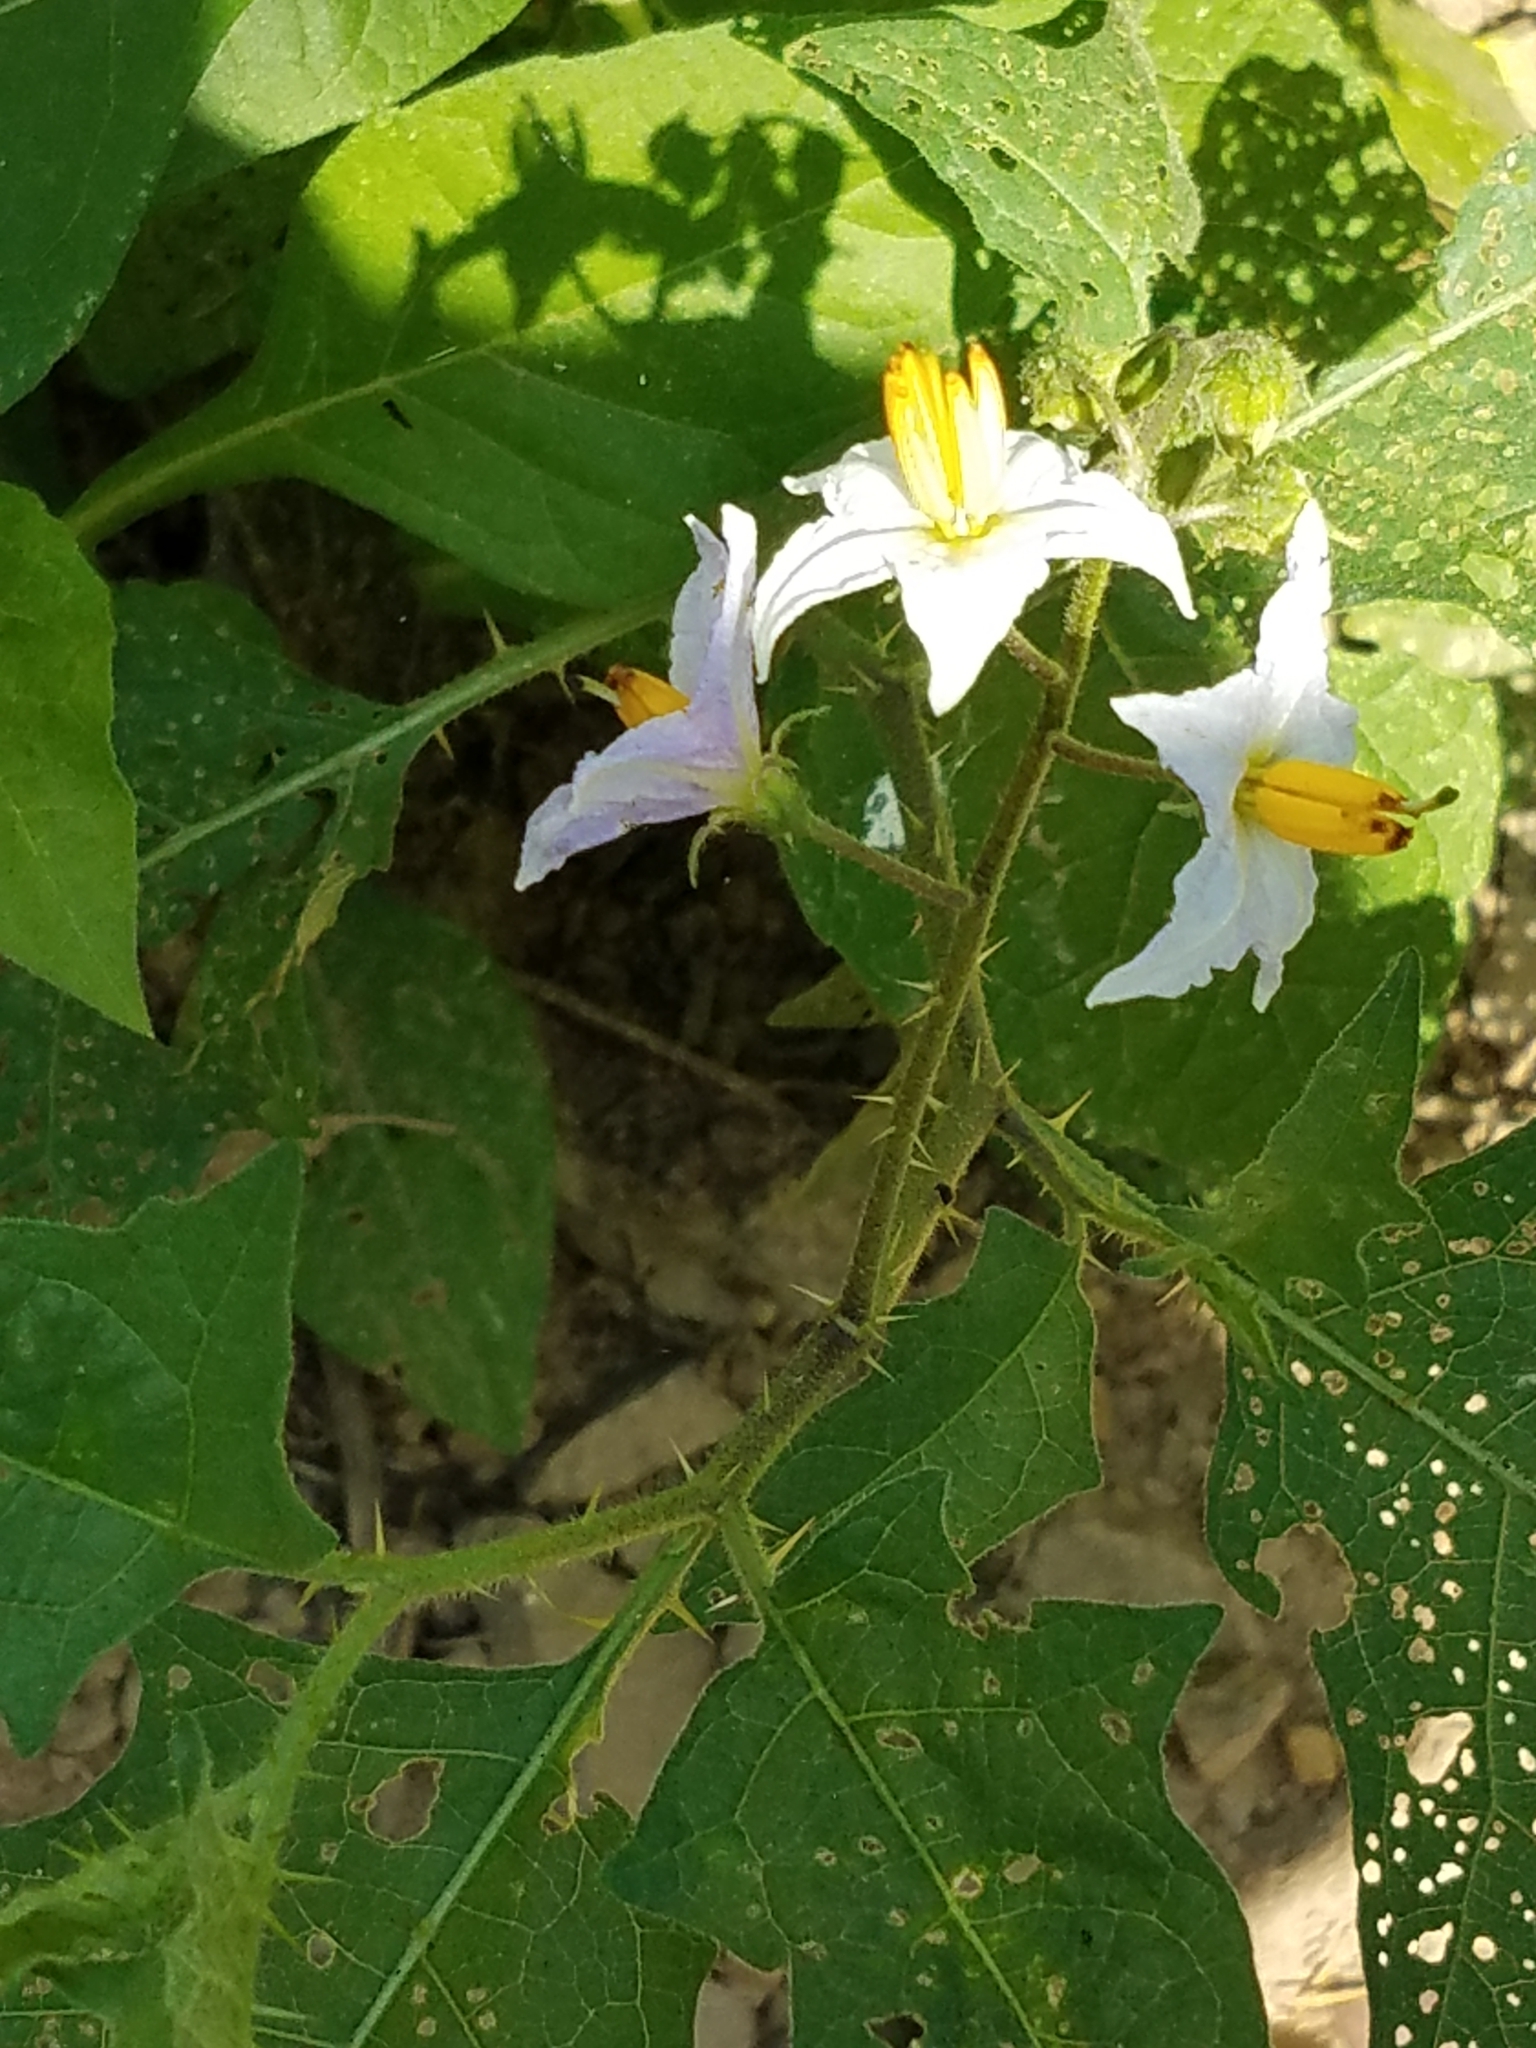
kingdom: Plantae
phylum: Tracheophyta
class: Magnoliopsida
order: Solanales
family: Solanaceae
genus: Solanum
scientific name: Solanum carolinense
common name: Horse-nettle
